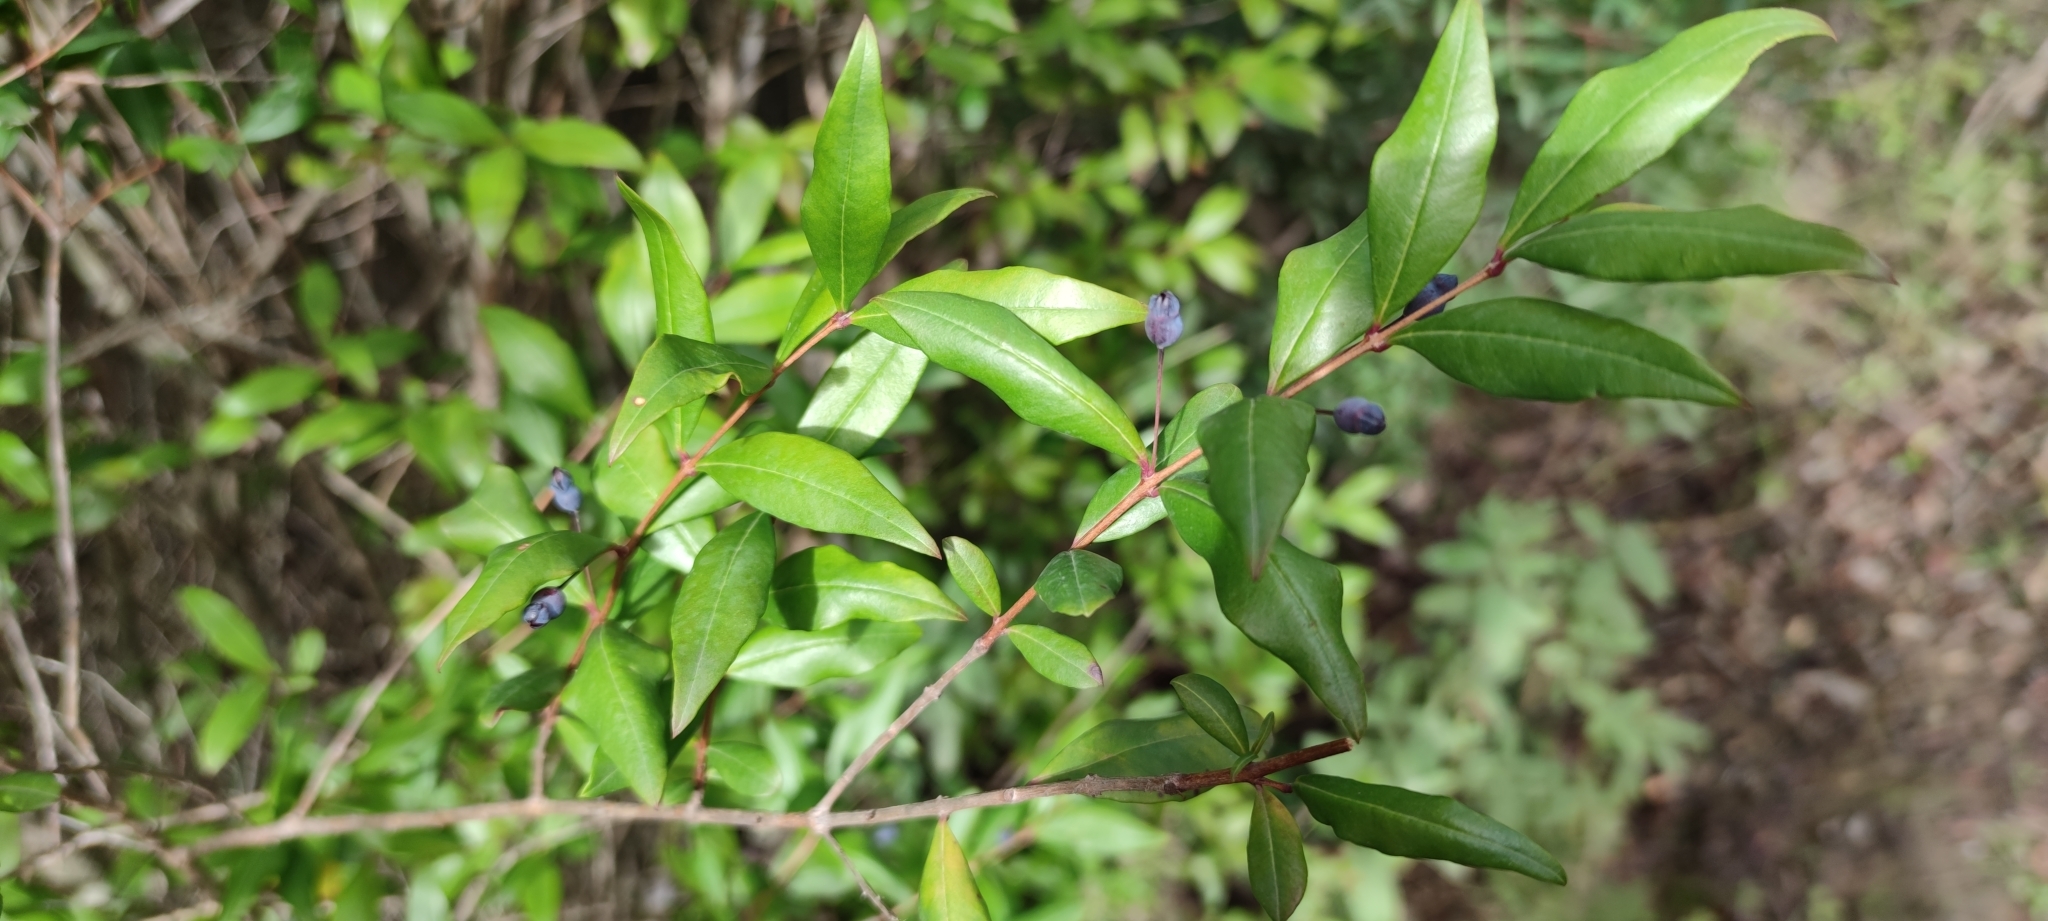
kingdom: Plantae
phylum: Tracheophyta
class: Magnoliopsida
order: Myrtales
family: Myrtaceae
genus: Myrtus
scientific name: Myrtus communis
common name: Myrtle
